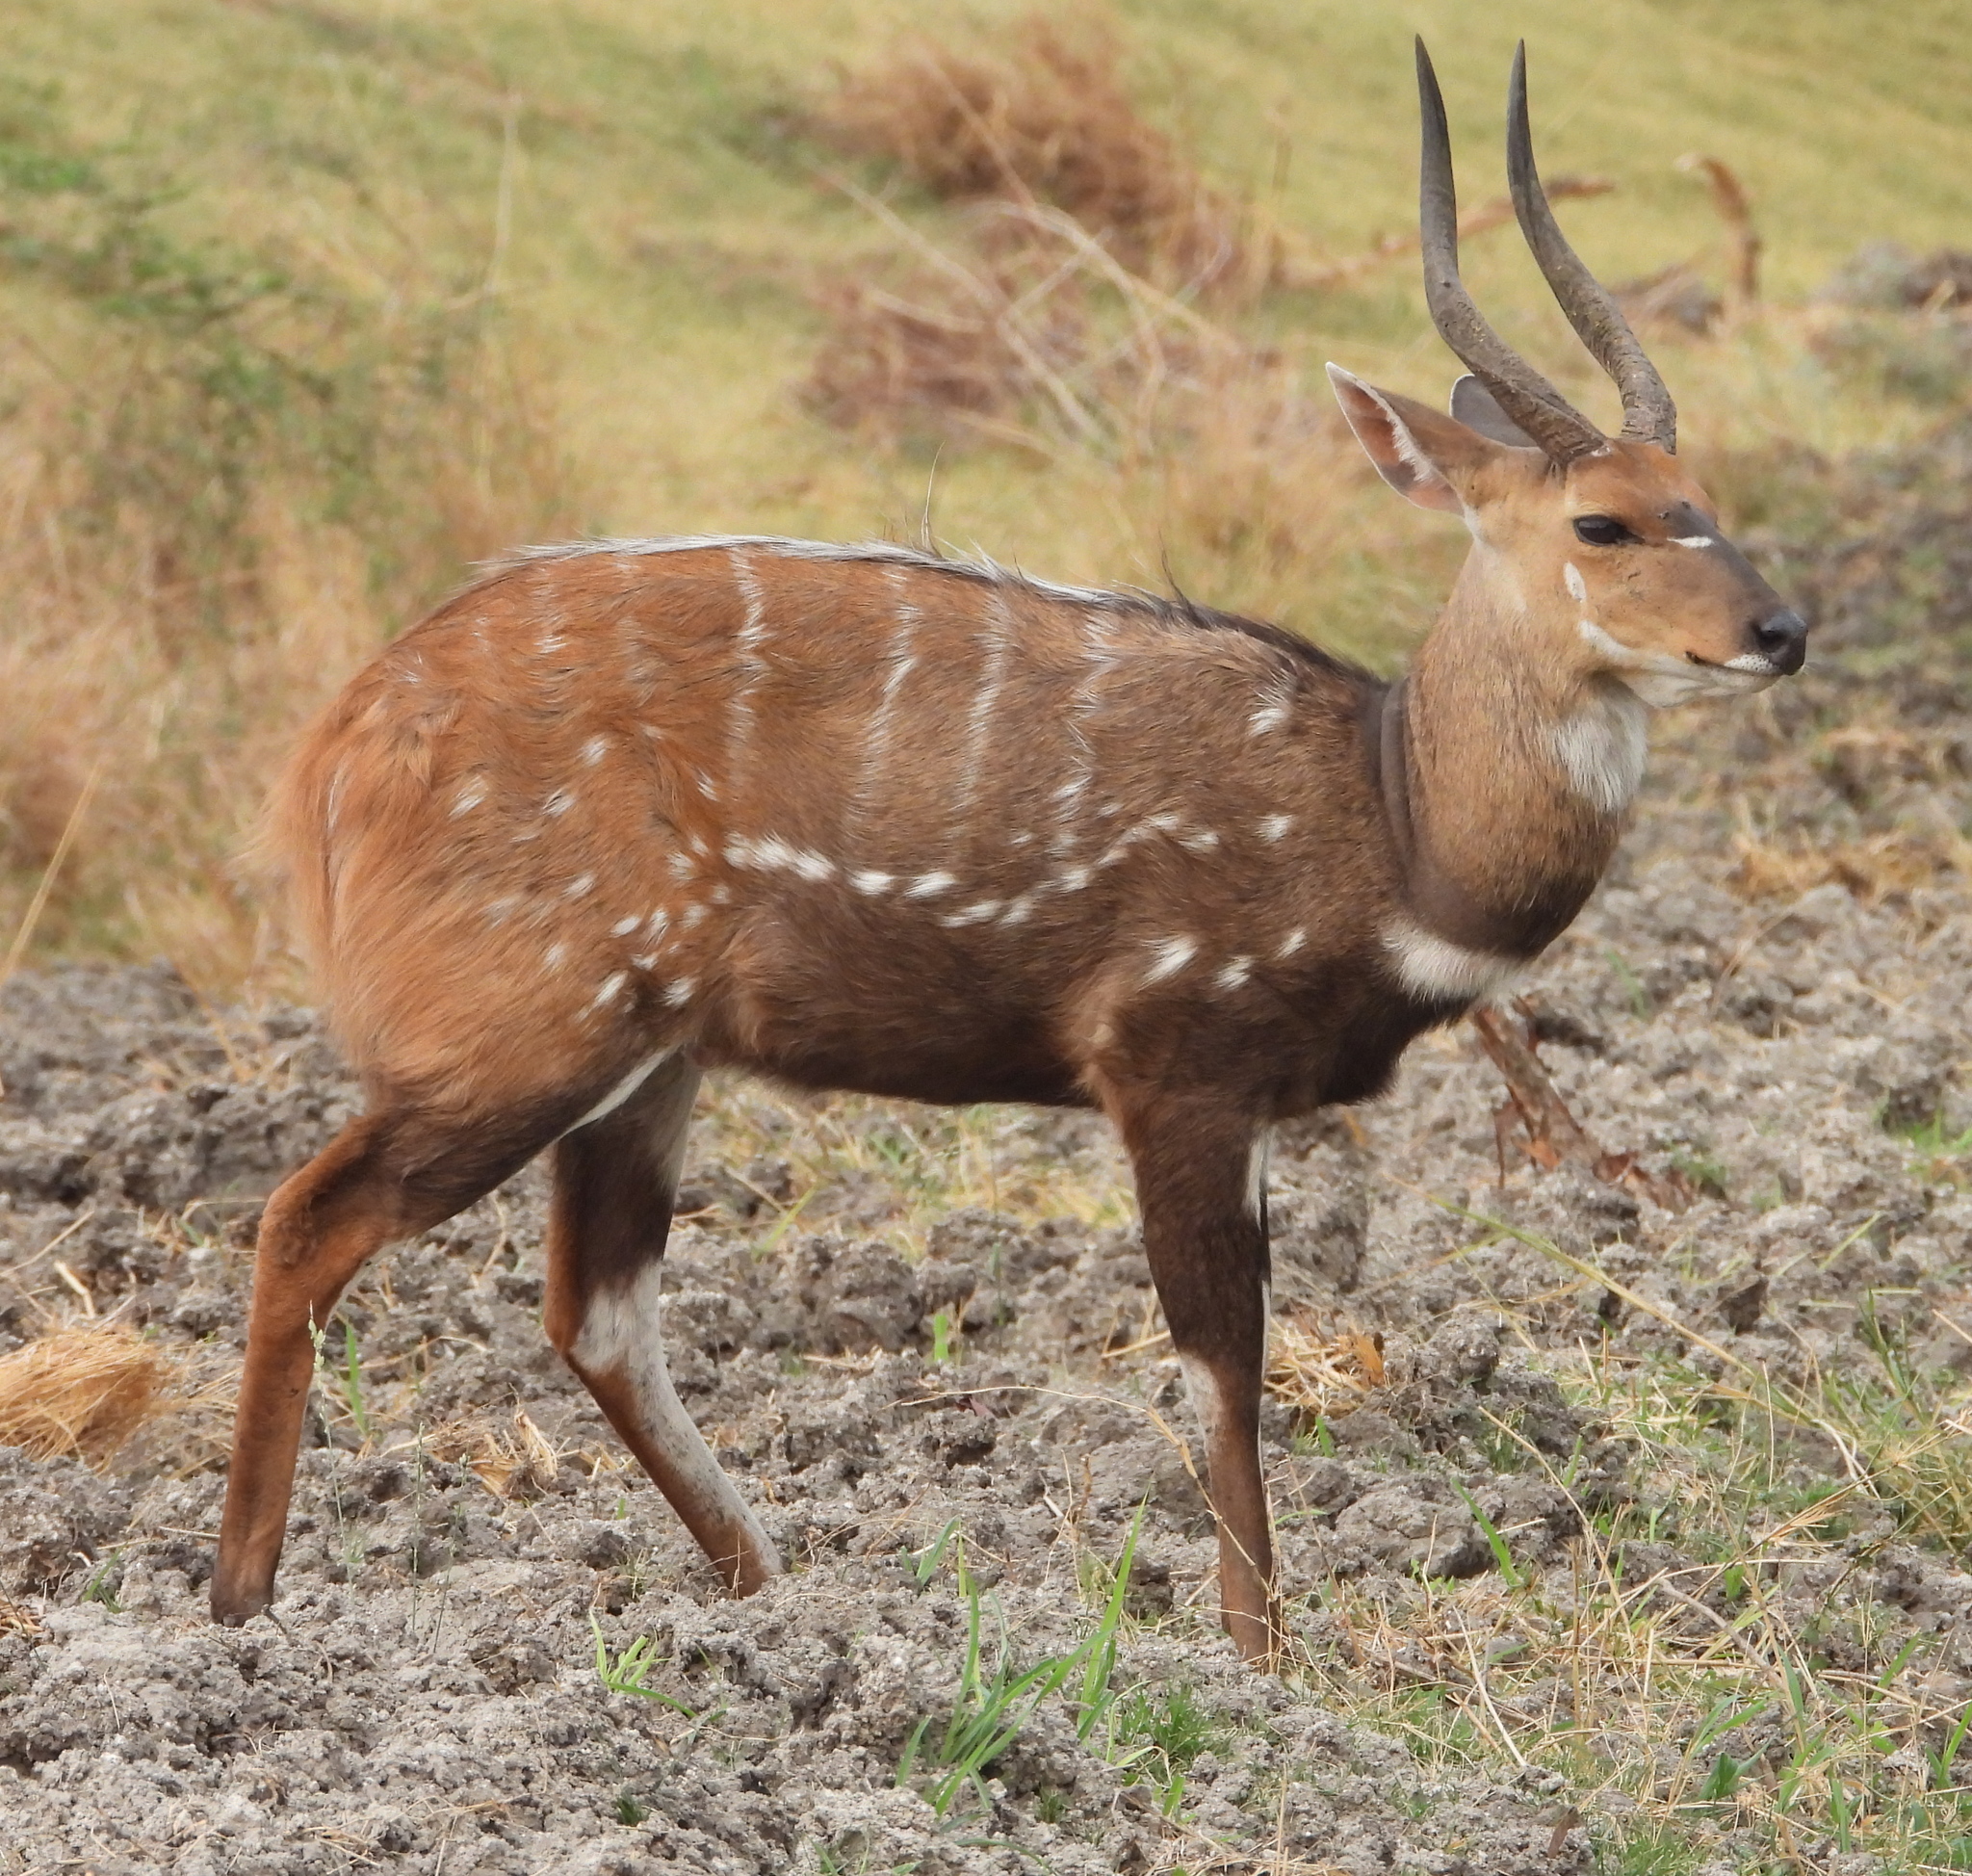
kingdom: Animalia
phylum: Chordata
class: Mammalia
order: Artiodactyla
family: Bovidae
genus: Tragelaphus
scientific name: Tragelaphus scriptus
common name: Bushbuck
